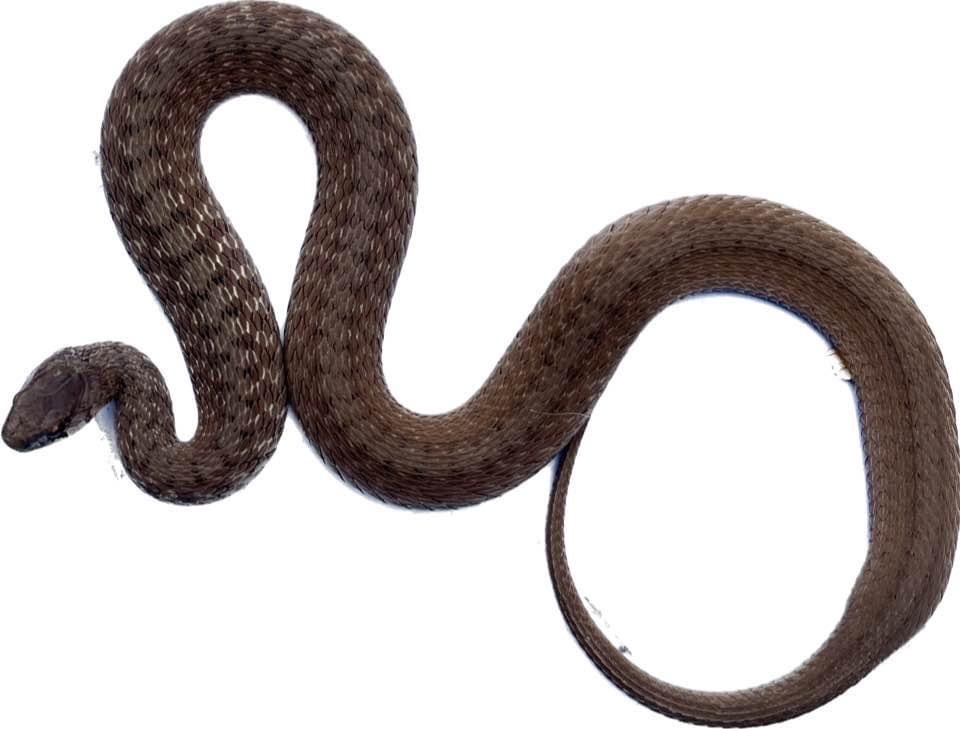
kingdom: Animalia
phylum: Chordata
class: Squamata
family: Colubridae
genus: Storeria
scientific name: Storeria dekayi
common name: (dekay’s) brown snake
